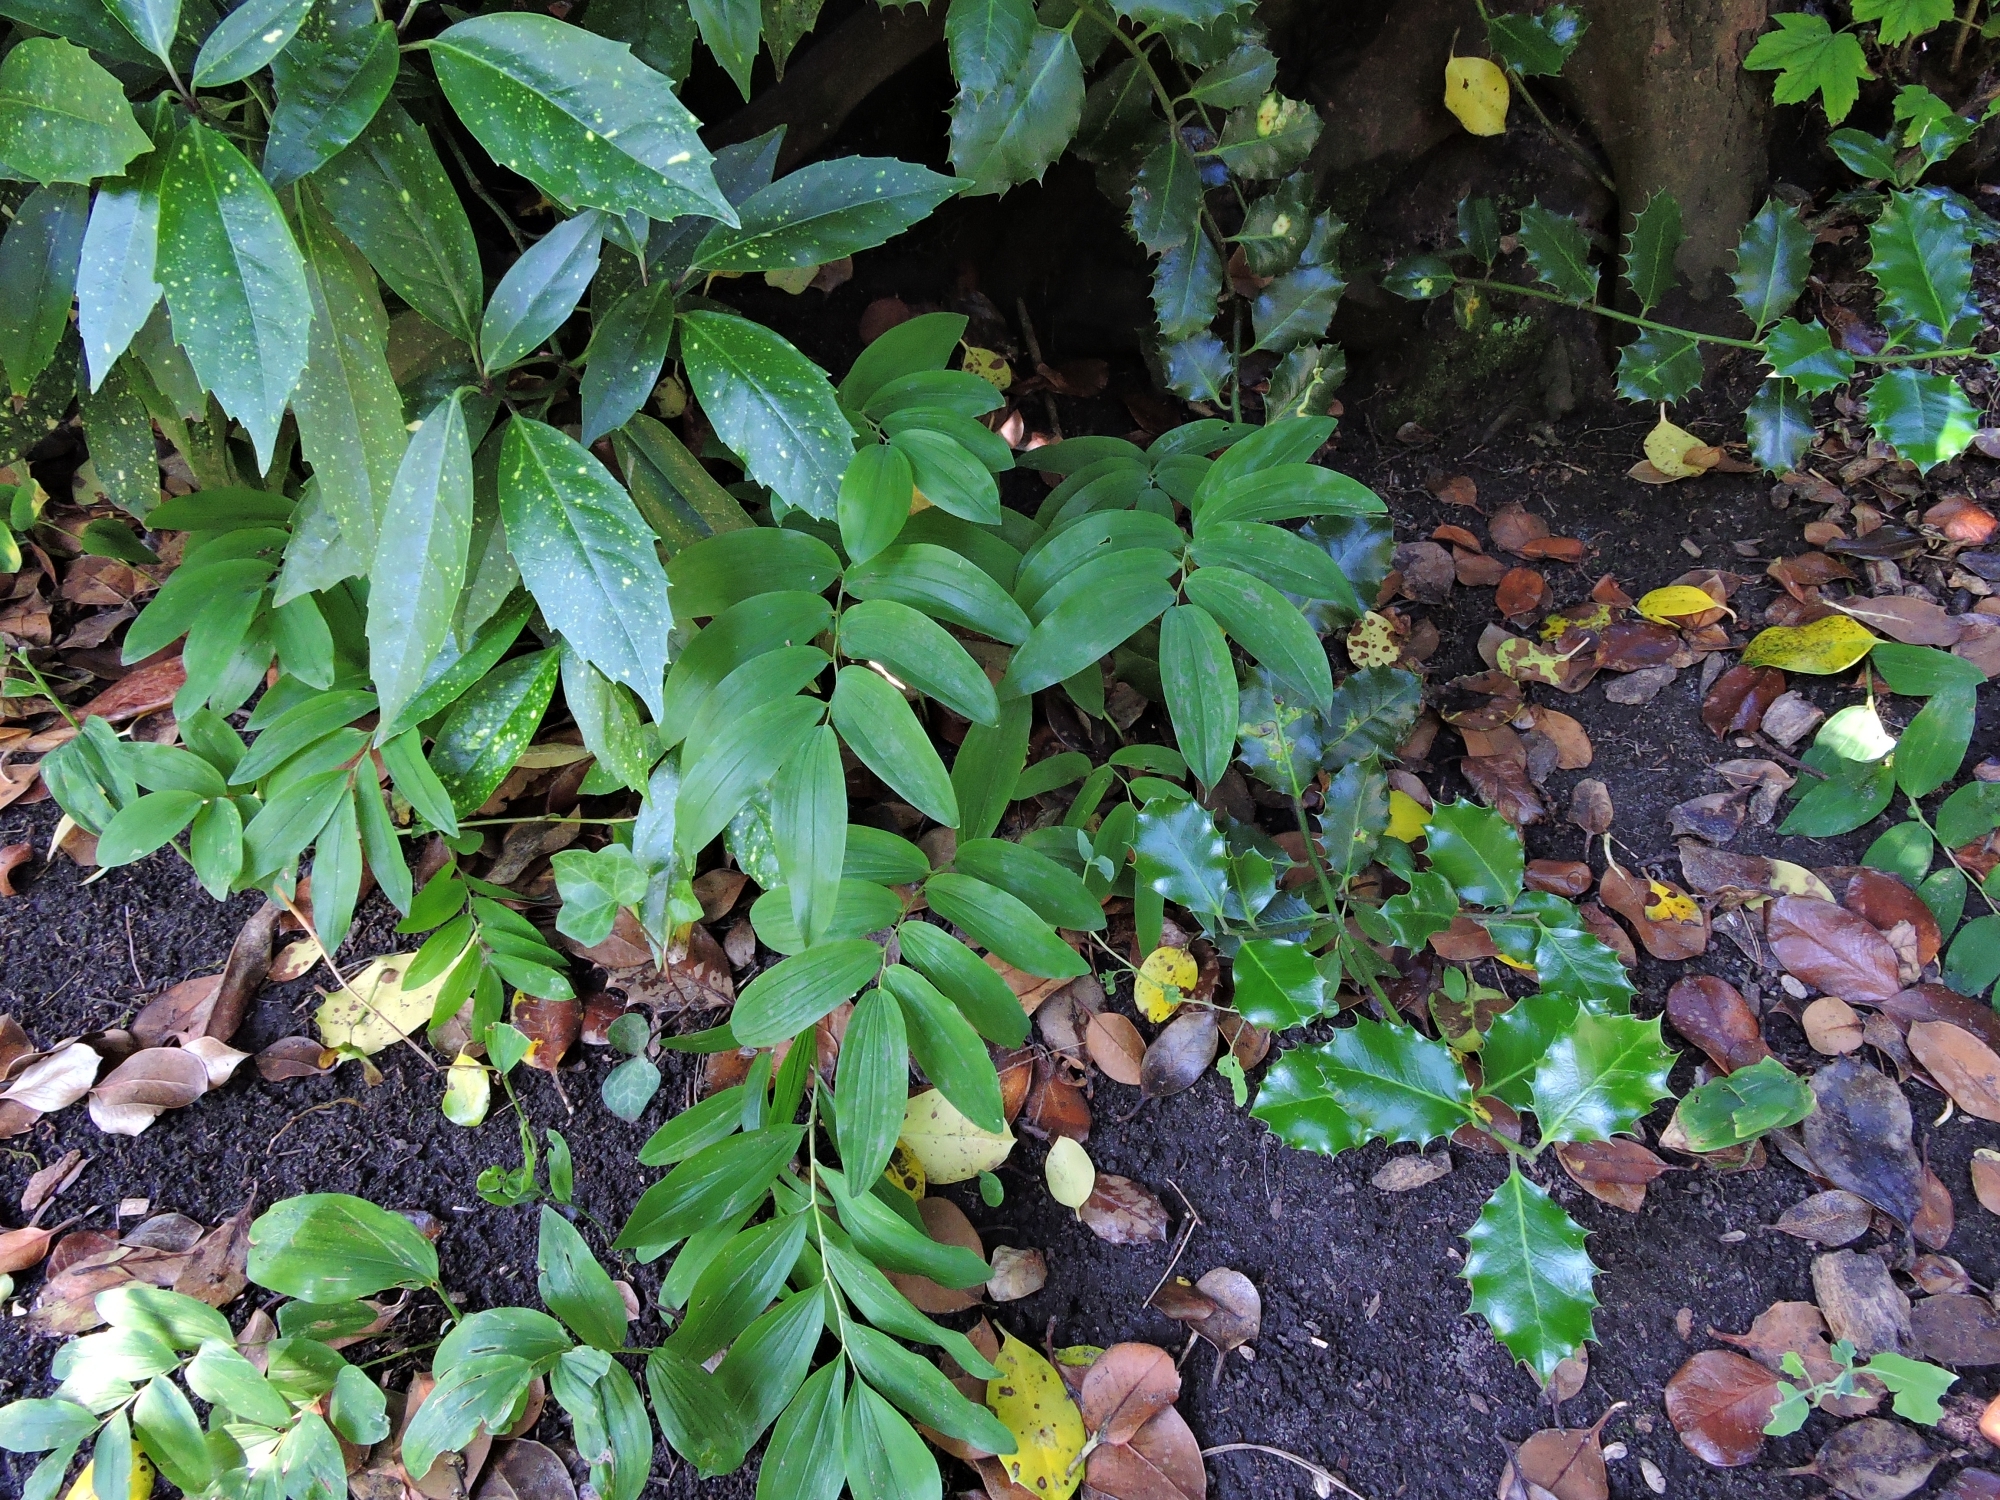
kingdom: Plantae
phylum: Tracheophyta
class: Liliopsida
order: Asparagales
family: Asparagaceae
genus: Polygonatum
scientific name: Polygonatum hybridum
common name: Garden solomon's-seal
